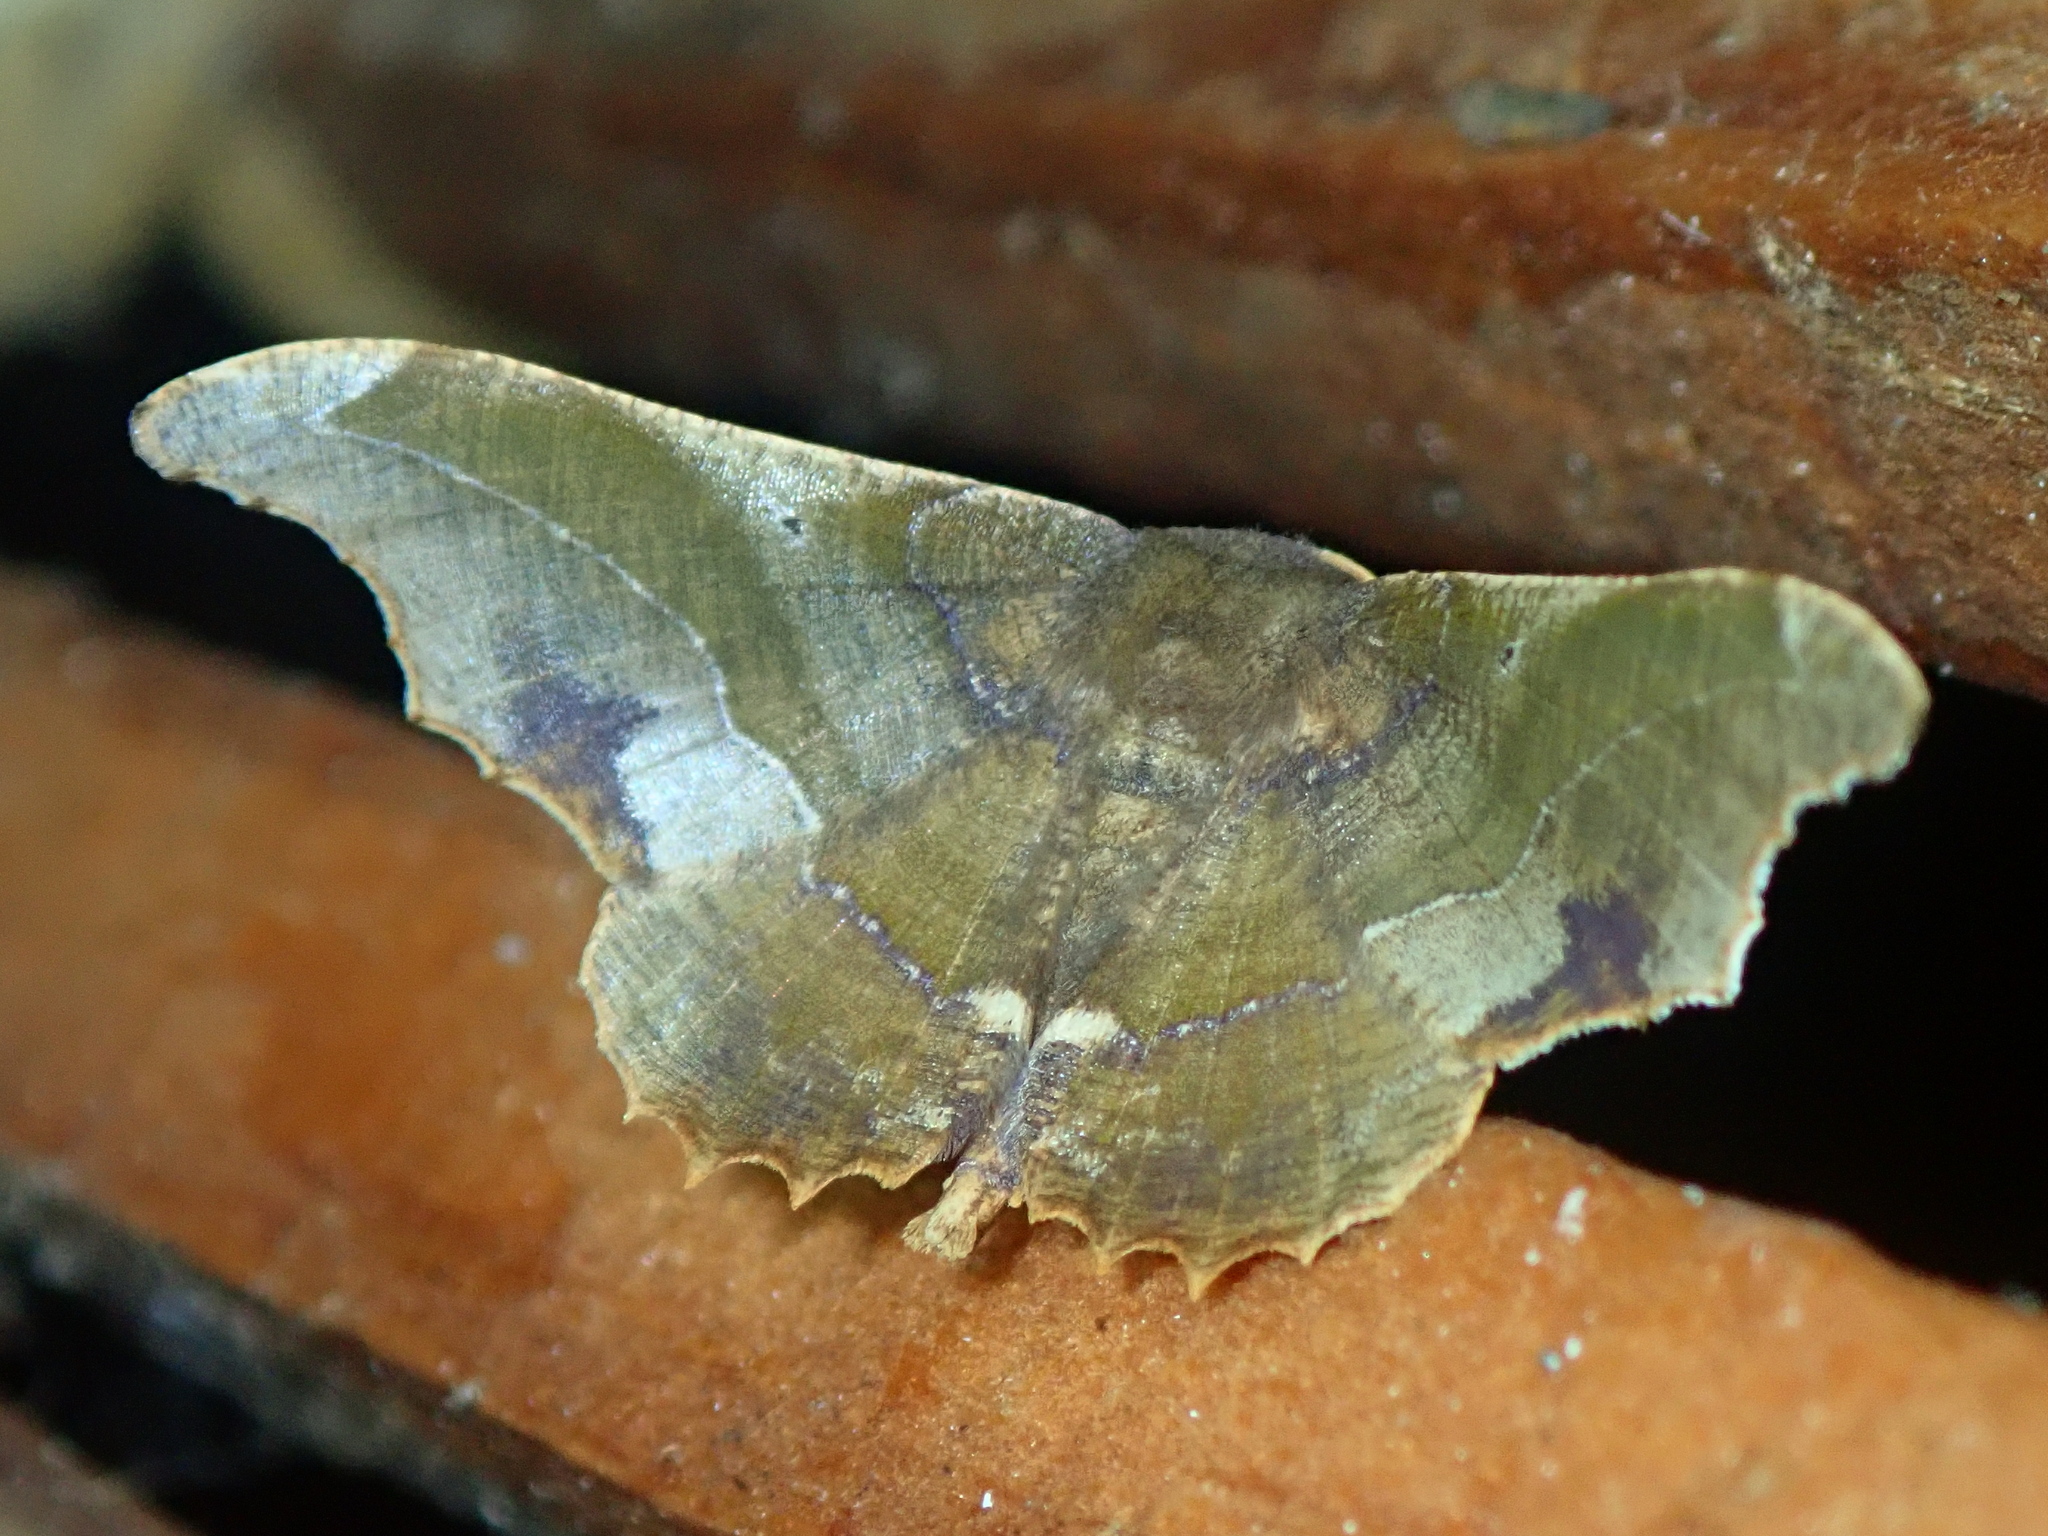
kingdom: Animalia
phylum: Arthropoda
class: Insecta
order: Lepidoptera
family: Geometridae
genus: Patalene
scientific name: Patalene aenetusaria
